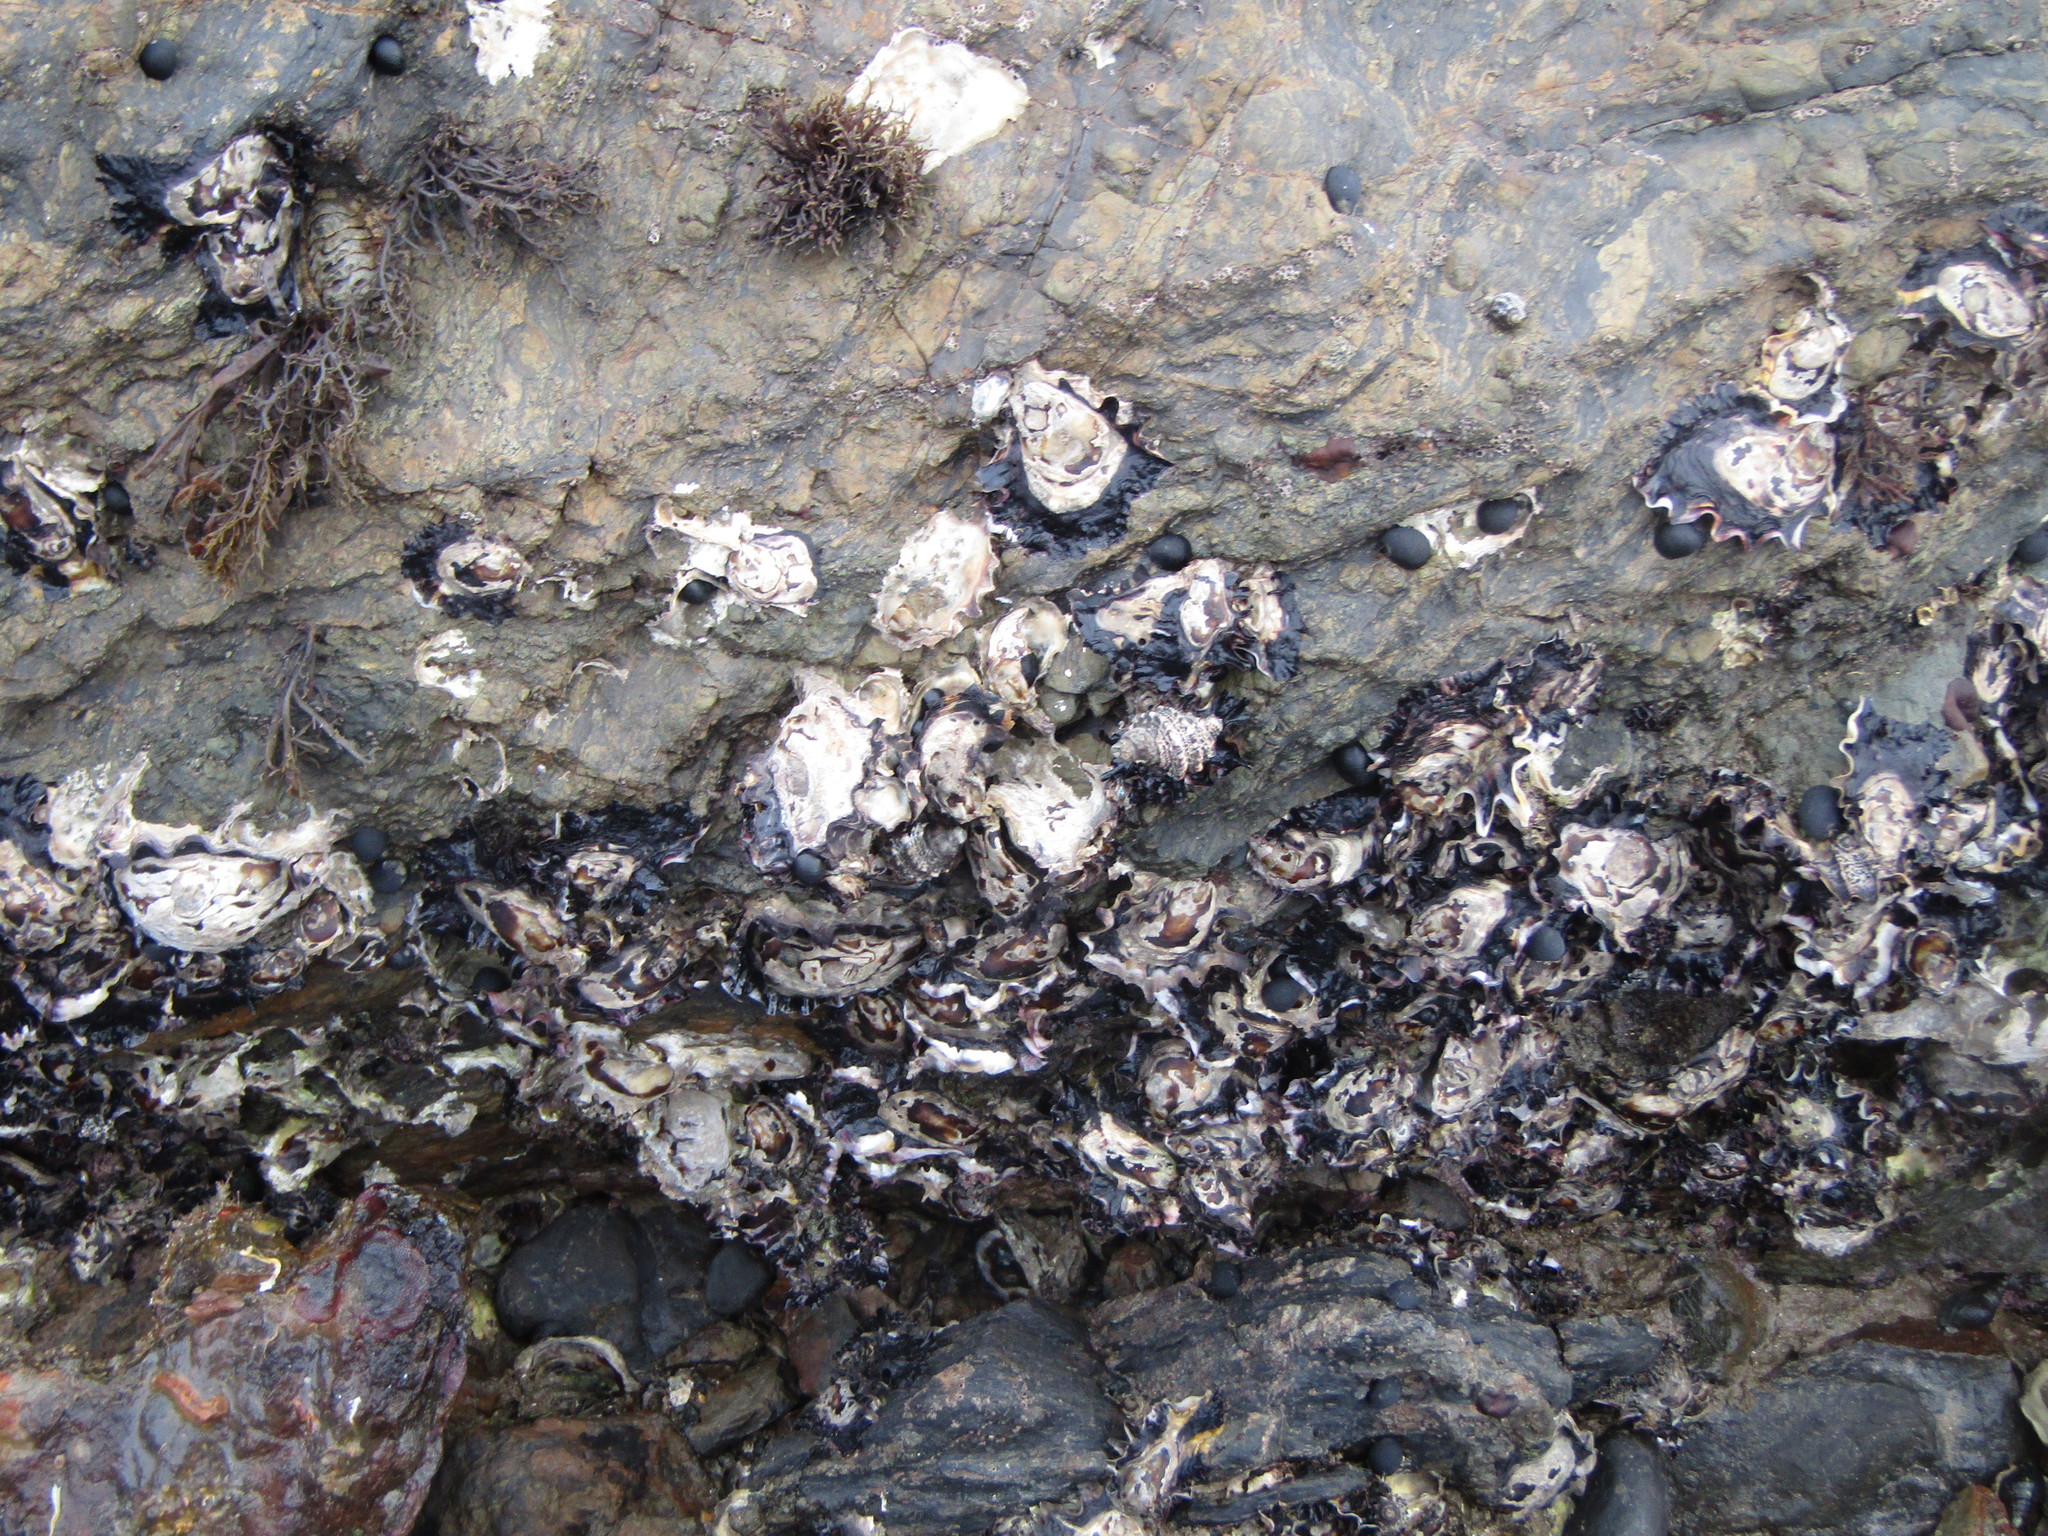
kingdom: Animalia
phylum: Mollusca
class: Bivalvia
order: Ostreida
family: Ostreidae
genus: Saccostrea
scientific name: Saccostrea glomerata
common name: Sydney cupped oyster
